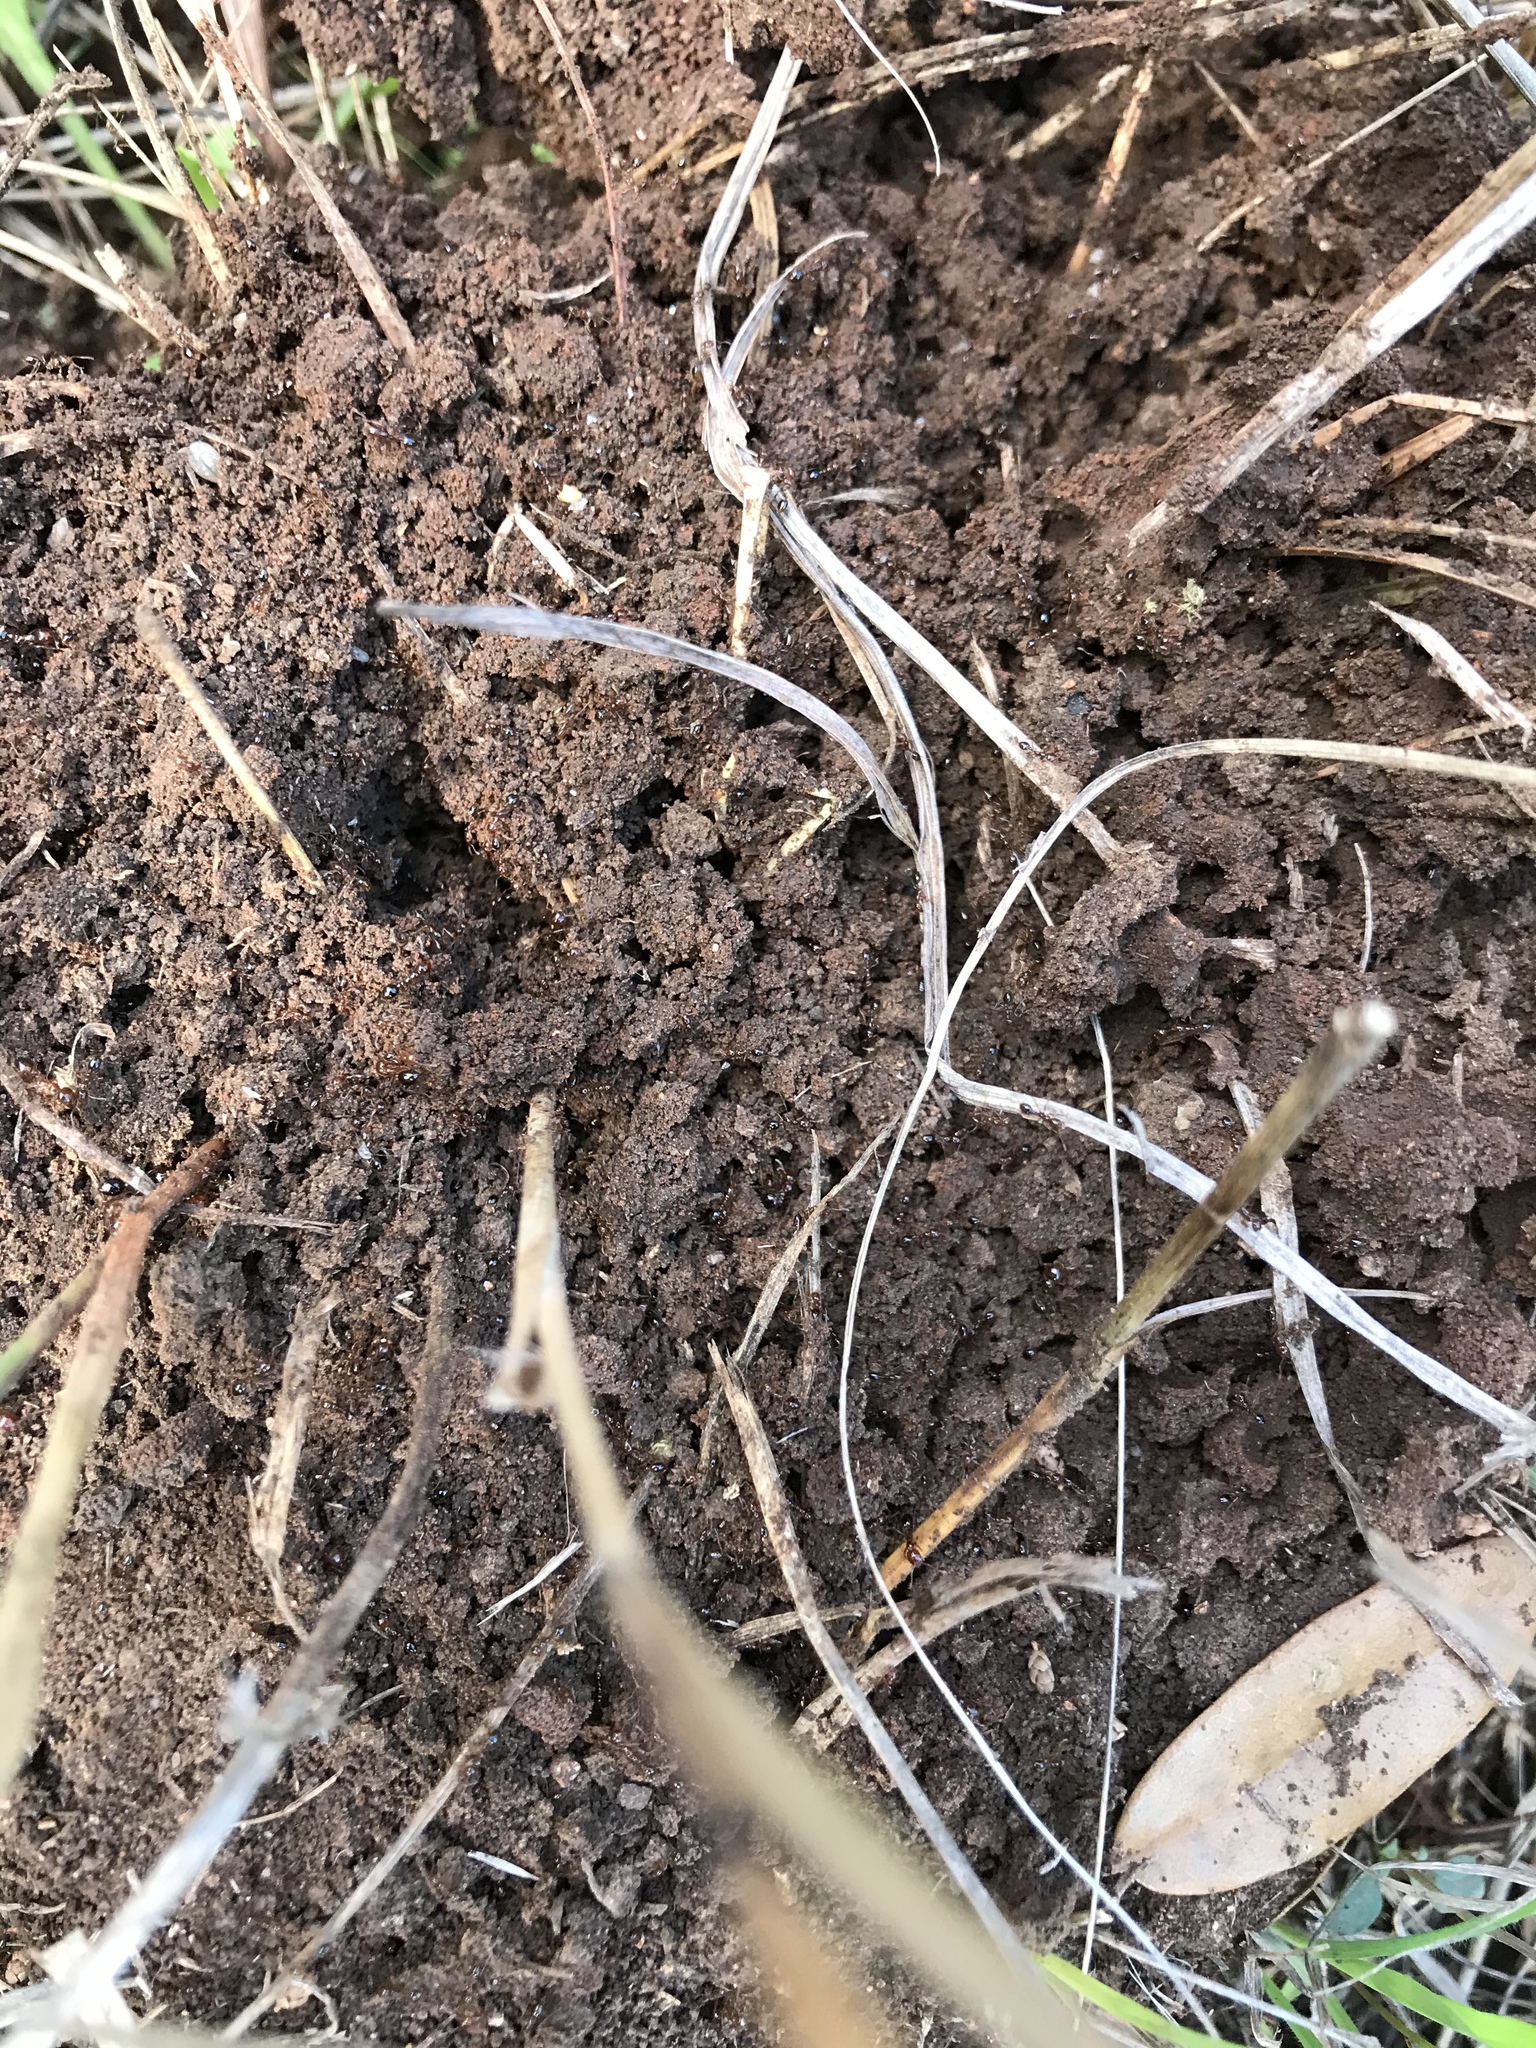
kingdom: Animalia
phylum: Arthropoda
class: Insecta
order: Hymenoptera
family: Formicidae
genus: Solenopsis
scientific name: Solenopsis invicta
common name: Red imported fire ant
